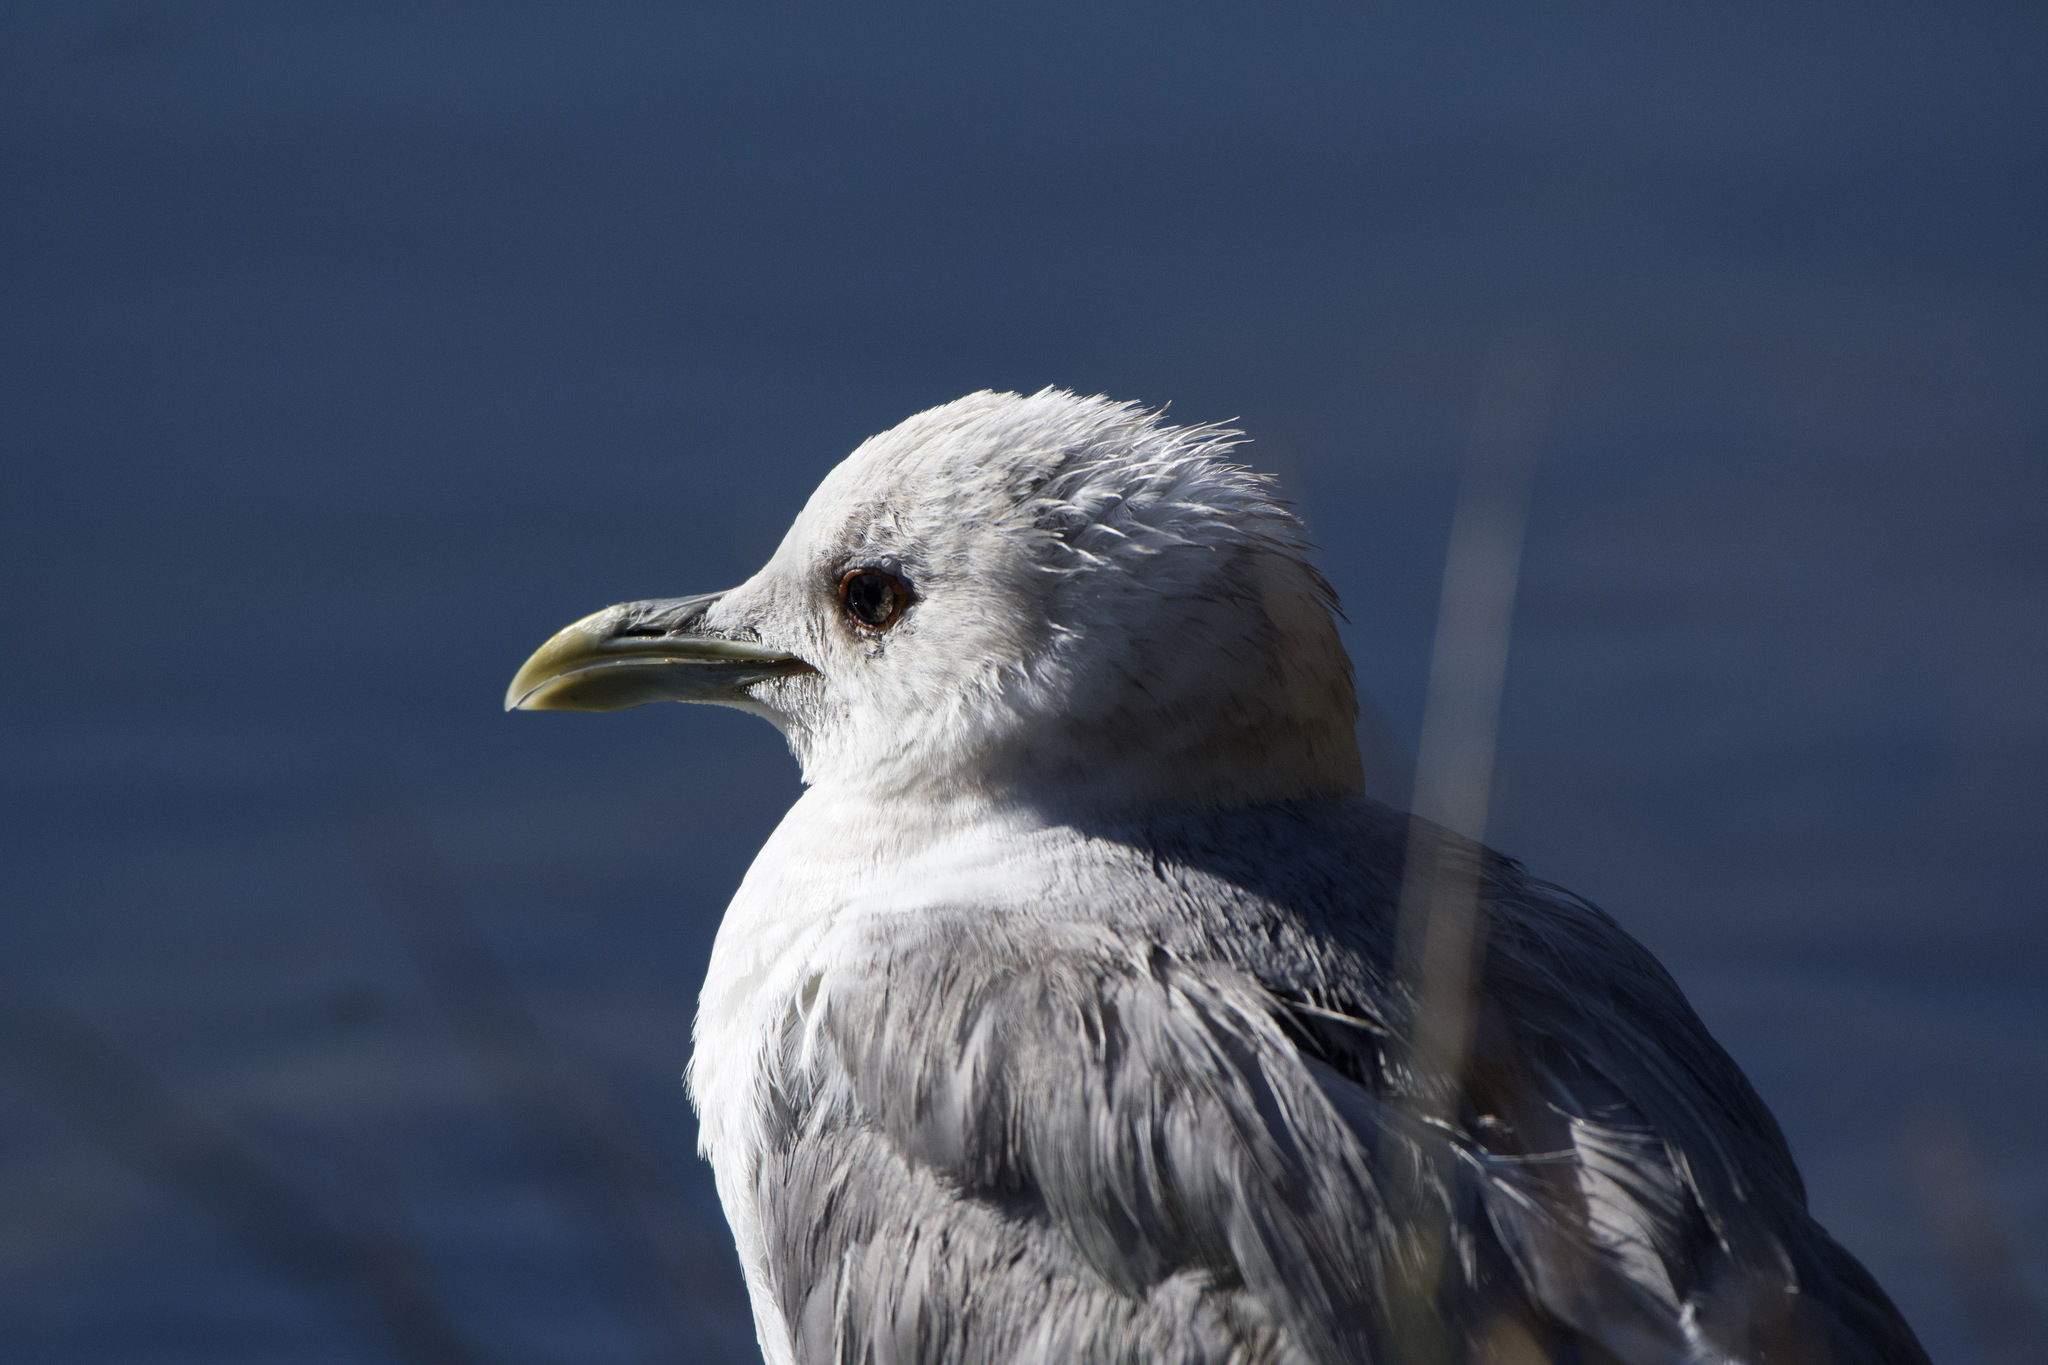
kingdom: Animalia
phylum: Chordata
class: Aves
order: Charadriiformes
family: Laridae
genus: Larus
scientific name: Larus brachyrhynchus
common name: Short-billed gull
